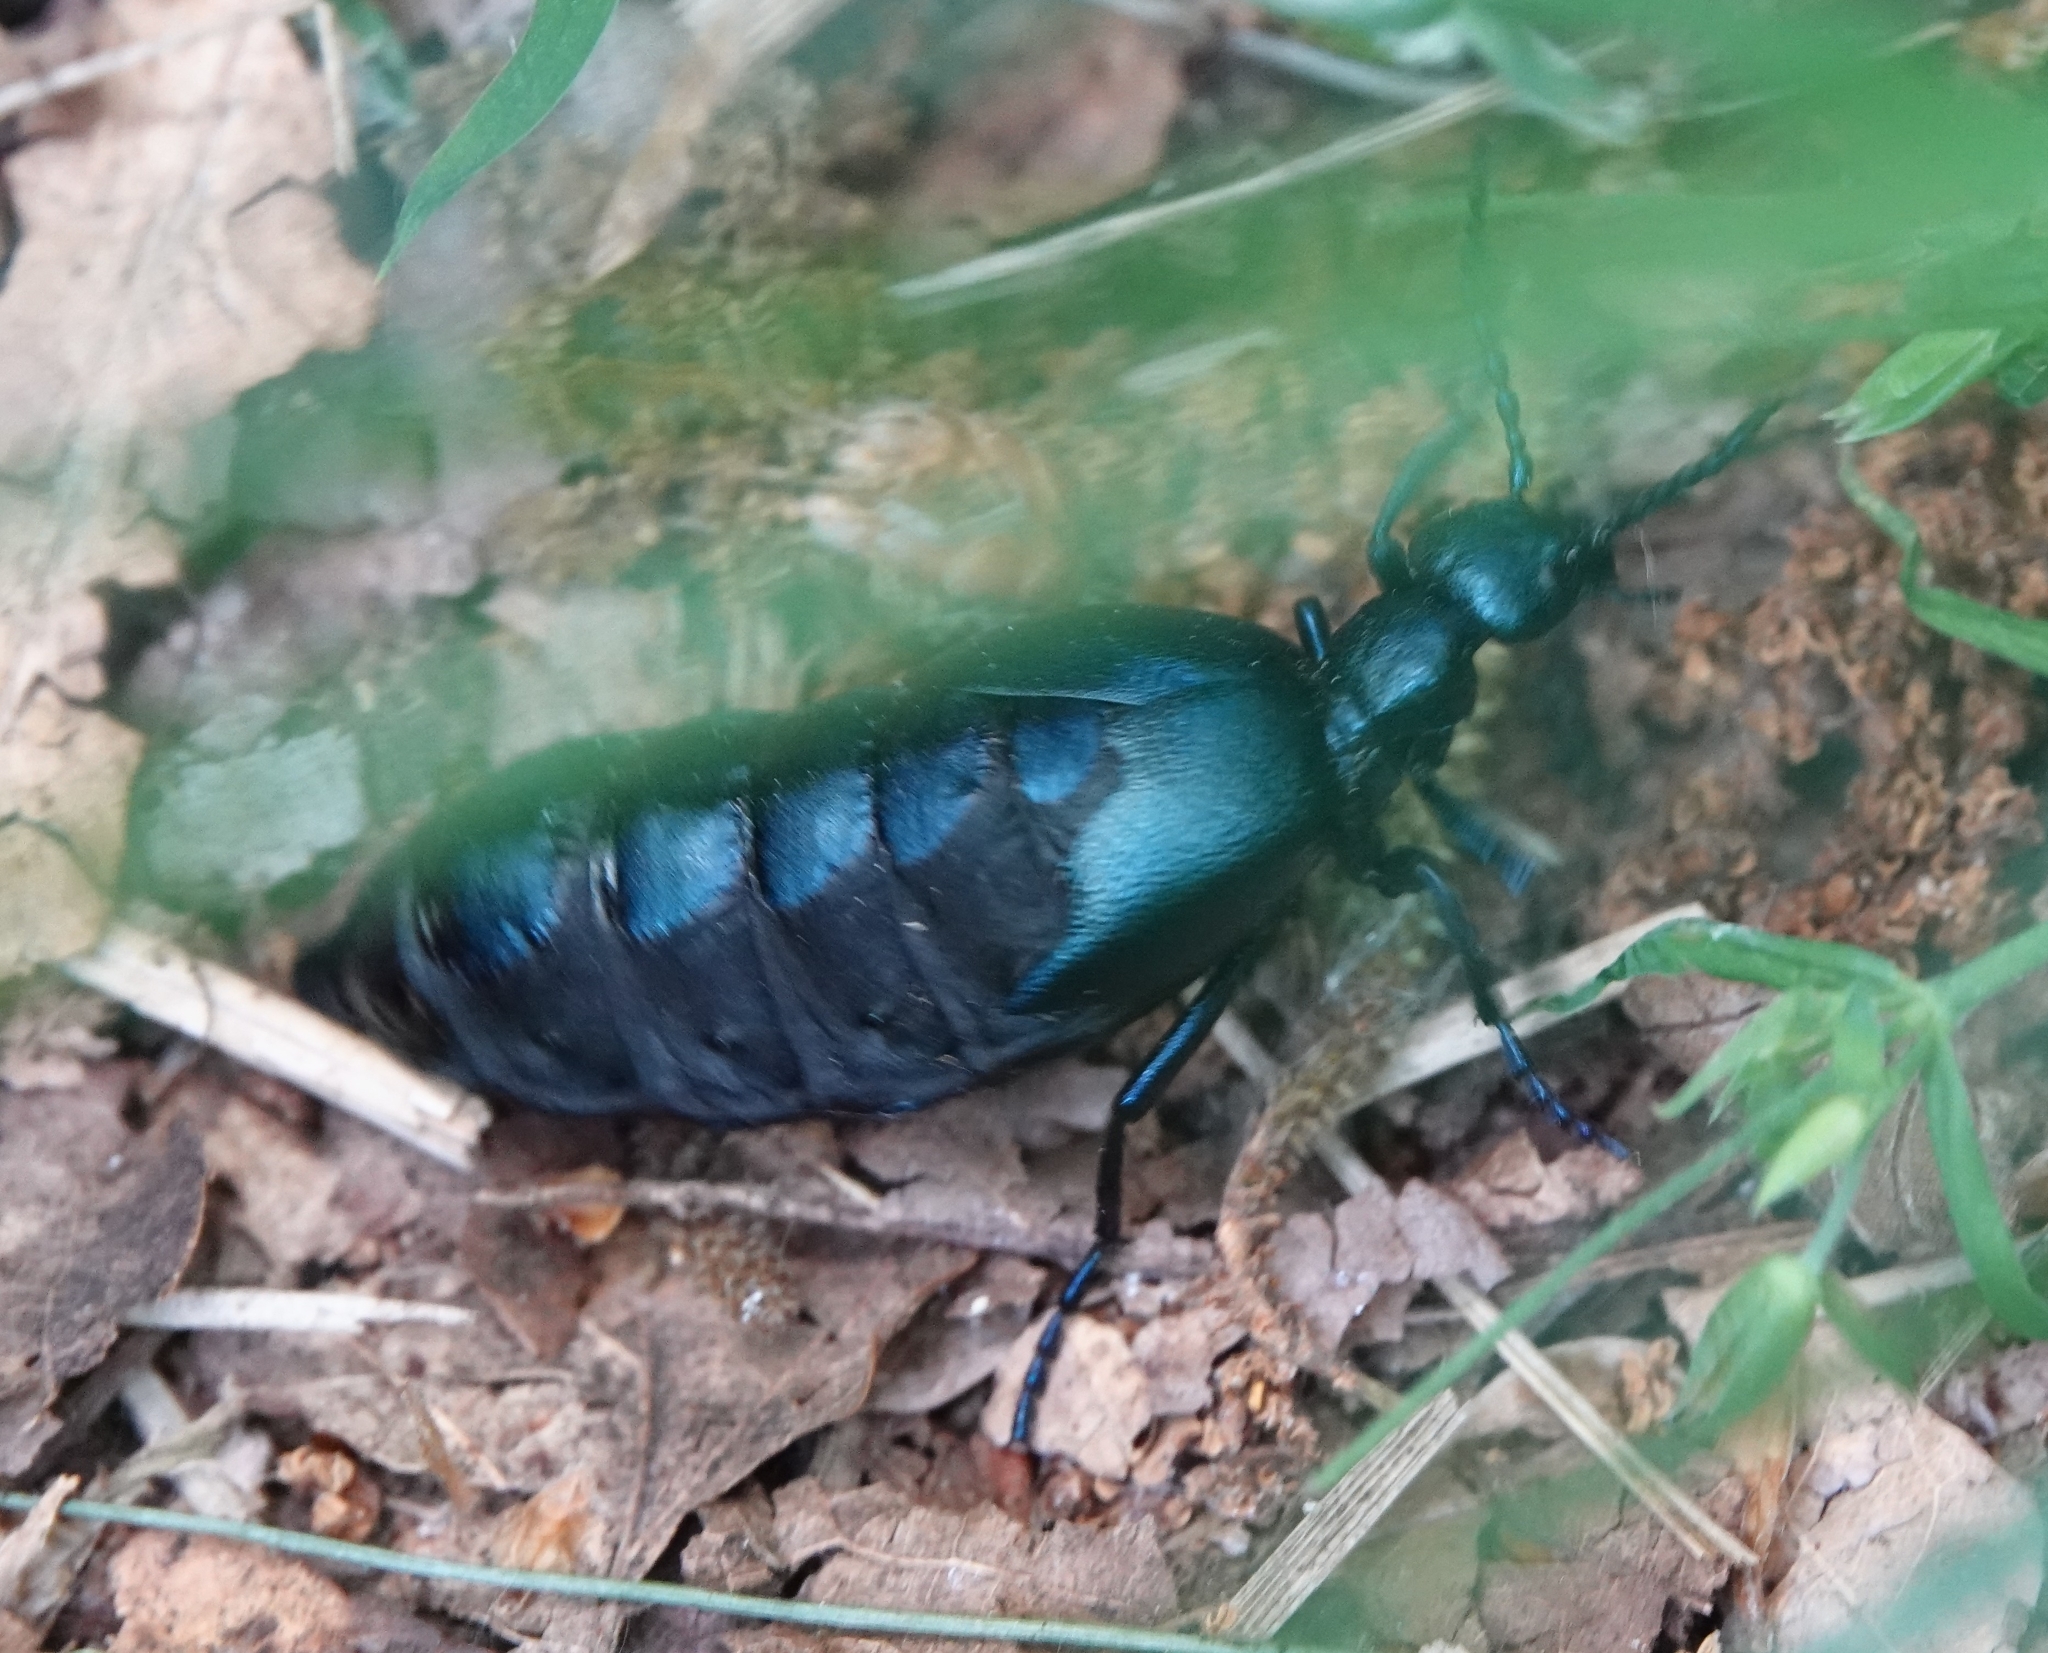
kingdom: Animalia
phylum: Arthropoda
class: Insecta
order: Coleoptera
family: Meloidae
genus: Meloe
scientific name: Meloe violaceus
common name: Violet oil-beetle
